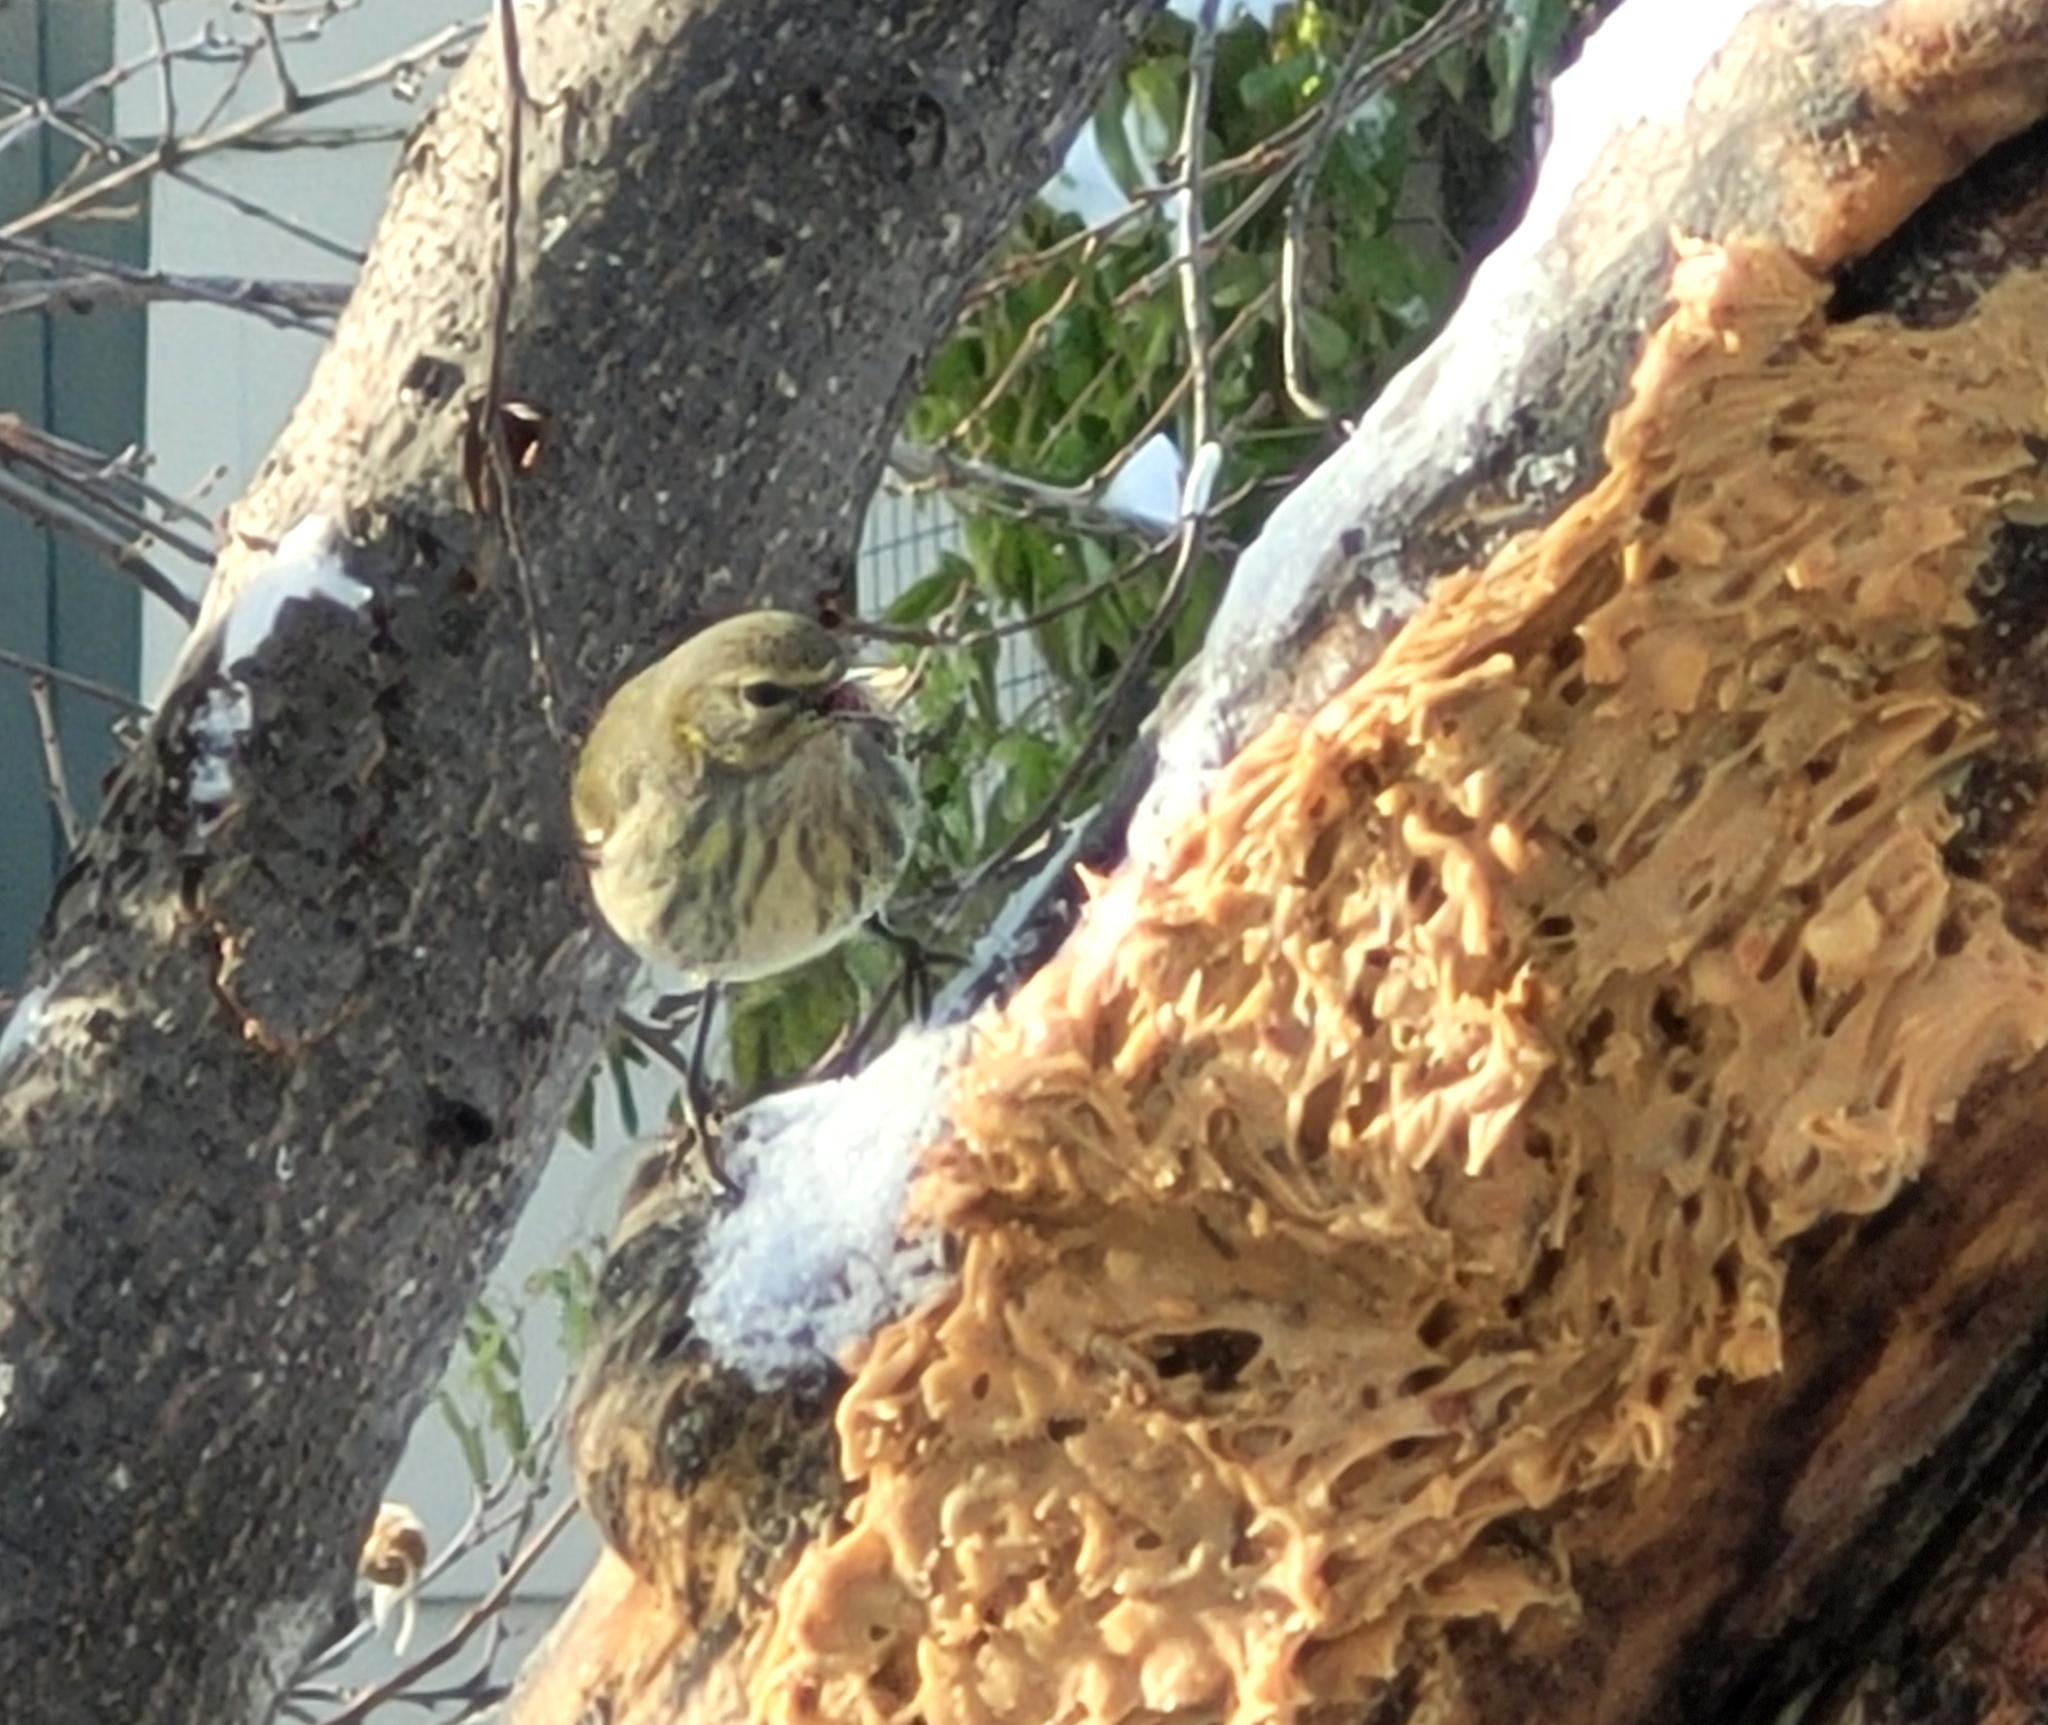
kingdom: Animalia
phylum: Chordata
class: Aves
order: Passeriformes
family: Parulidae
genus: Setophaga
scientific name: Setophaga tigrina
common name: Cape may warbler
